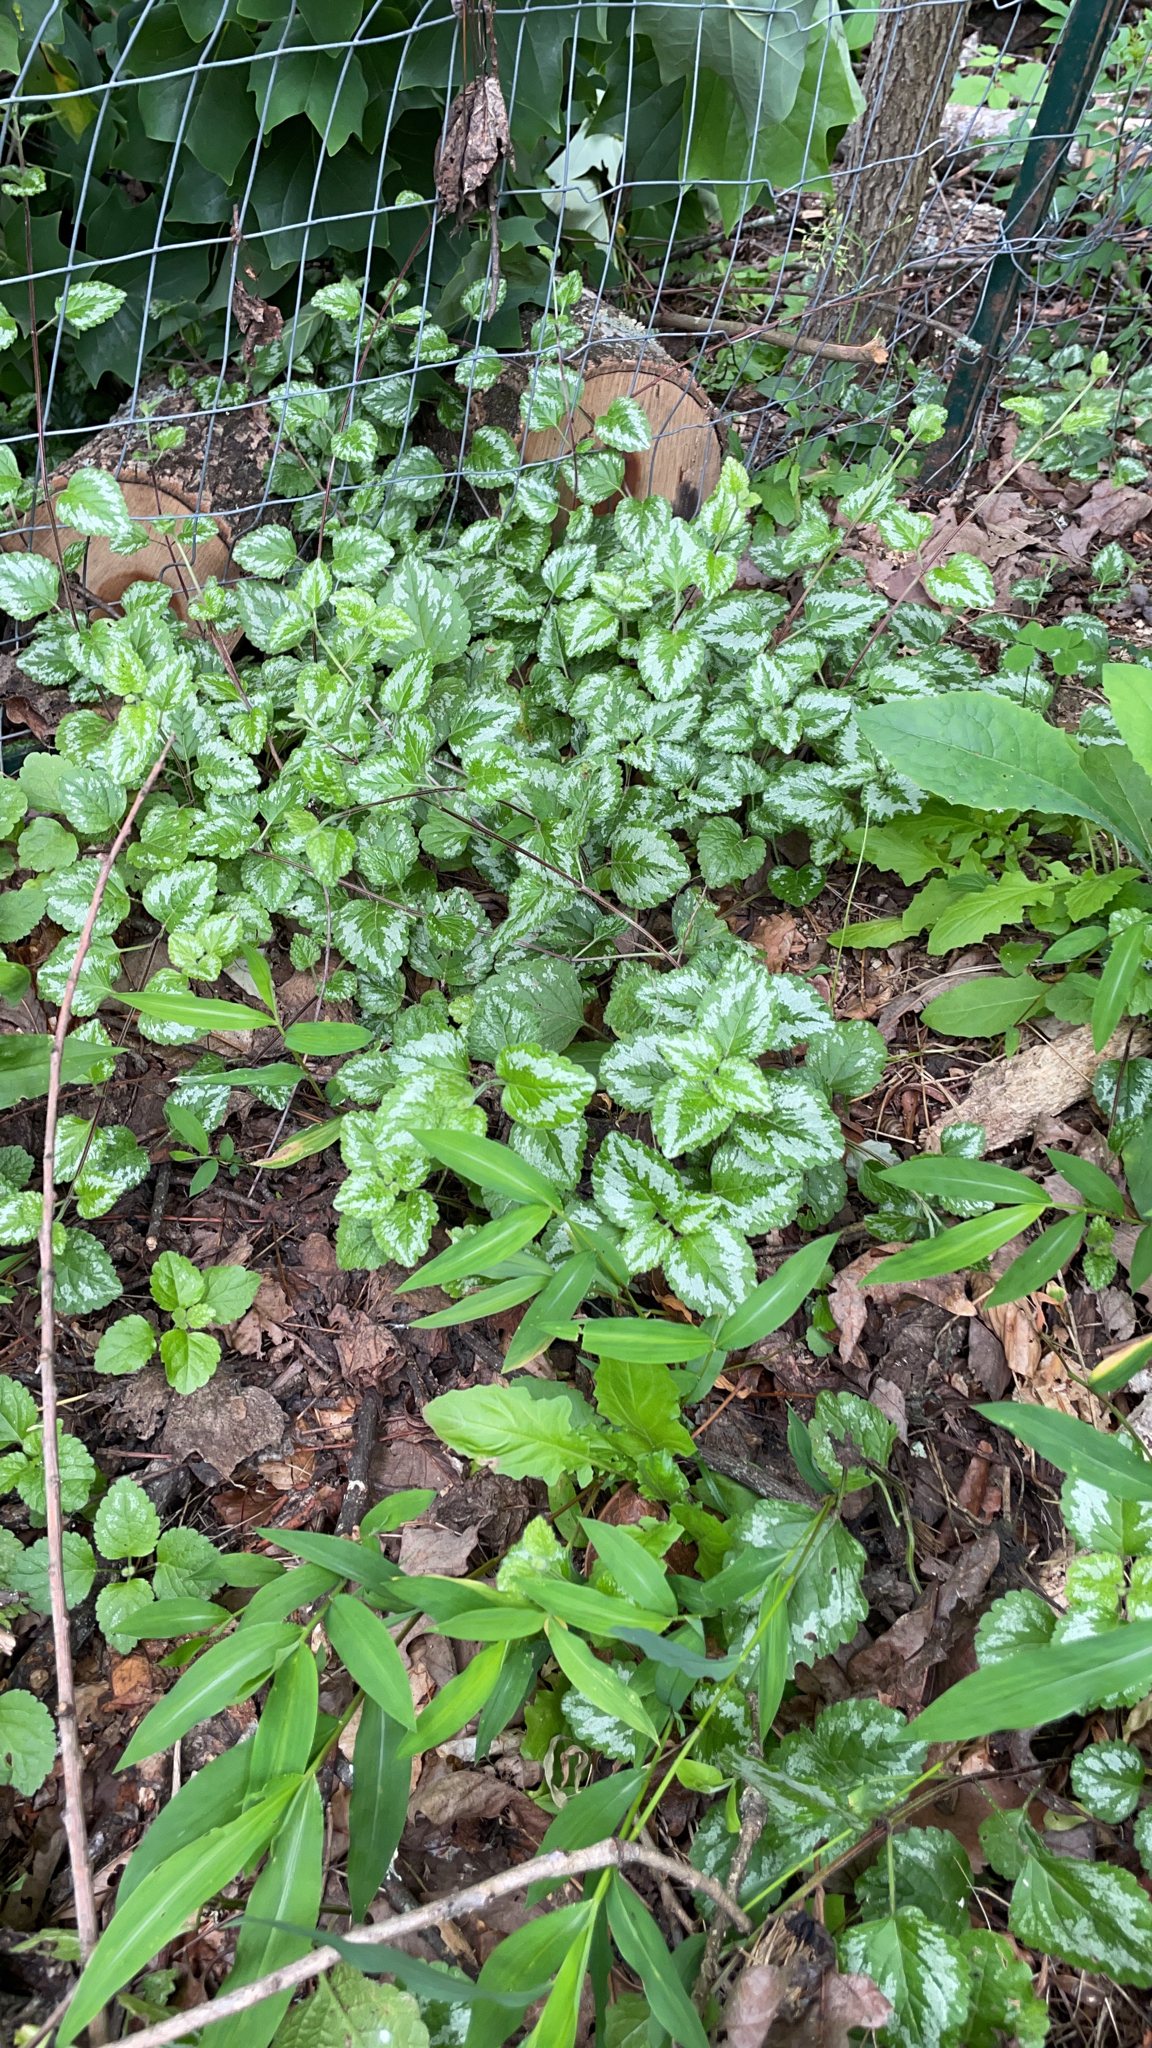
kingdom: Plantae
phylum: Tracheophyta
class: Magnoliopsida
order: Lamiales
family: Lamiaceae
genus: Lamium
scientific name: Lamium galeobdolon
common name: Yellow archangel
